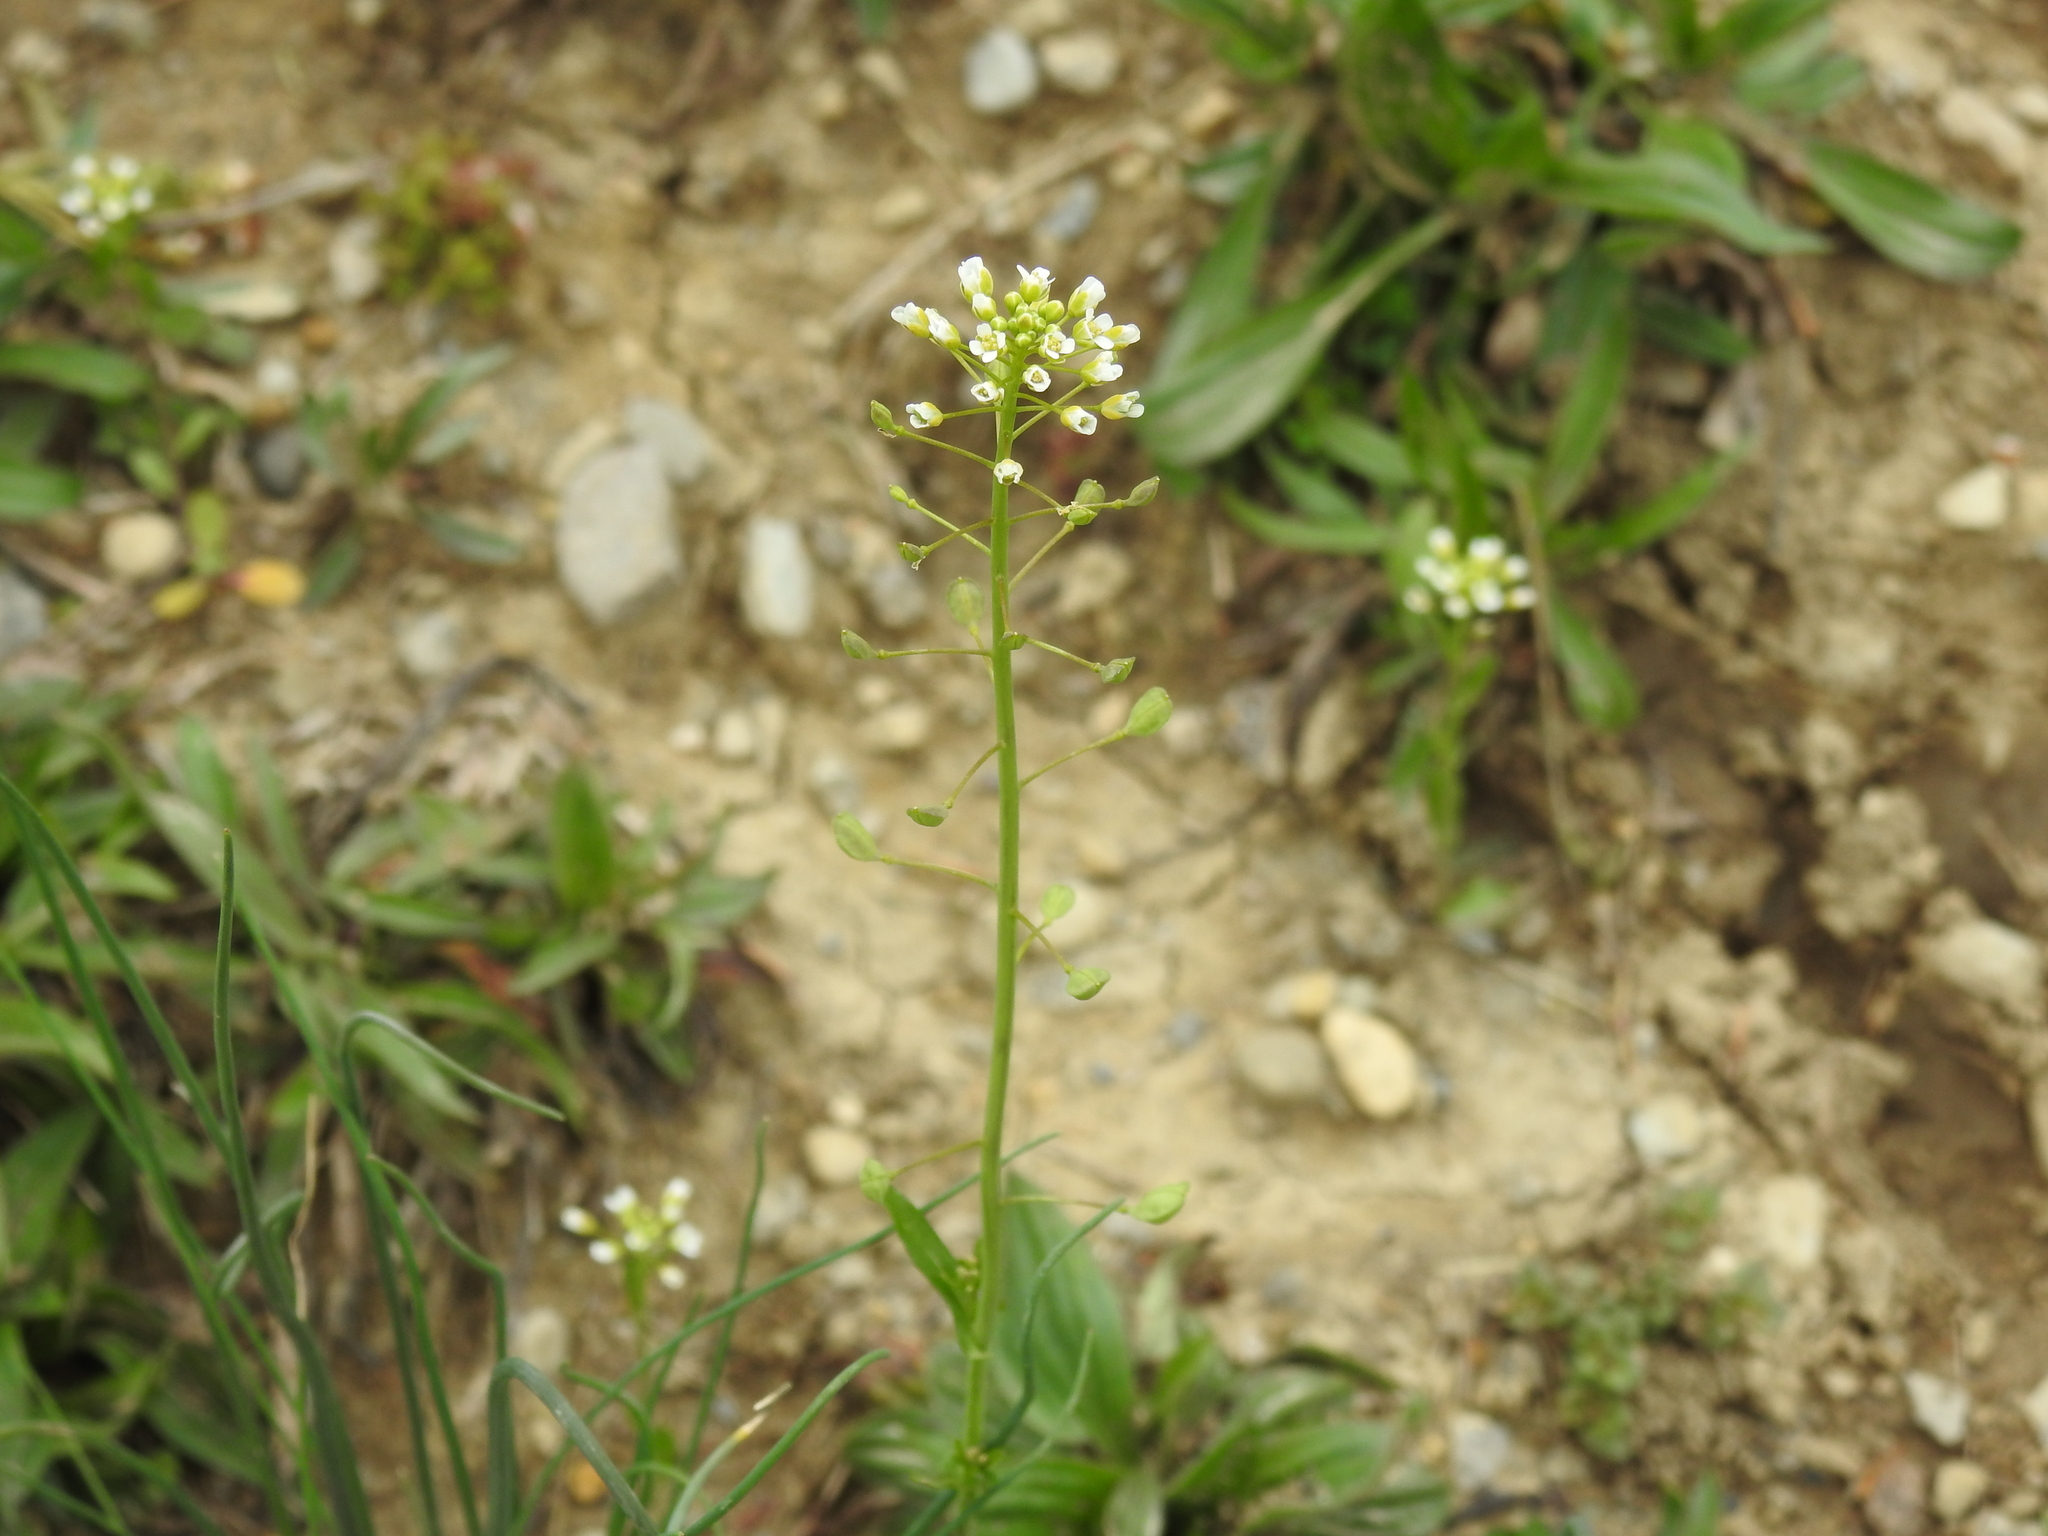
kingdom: Plantae
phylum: Tracheophyta
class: Magnoliopsida
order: Brassicales
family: Brassicaceae
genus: Mummenhoffia
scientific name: Mummenhoffia alliacea
